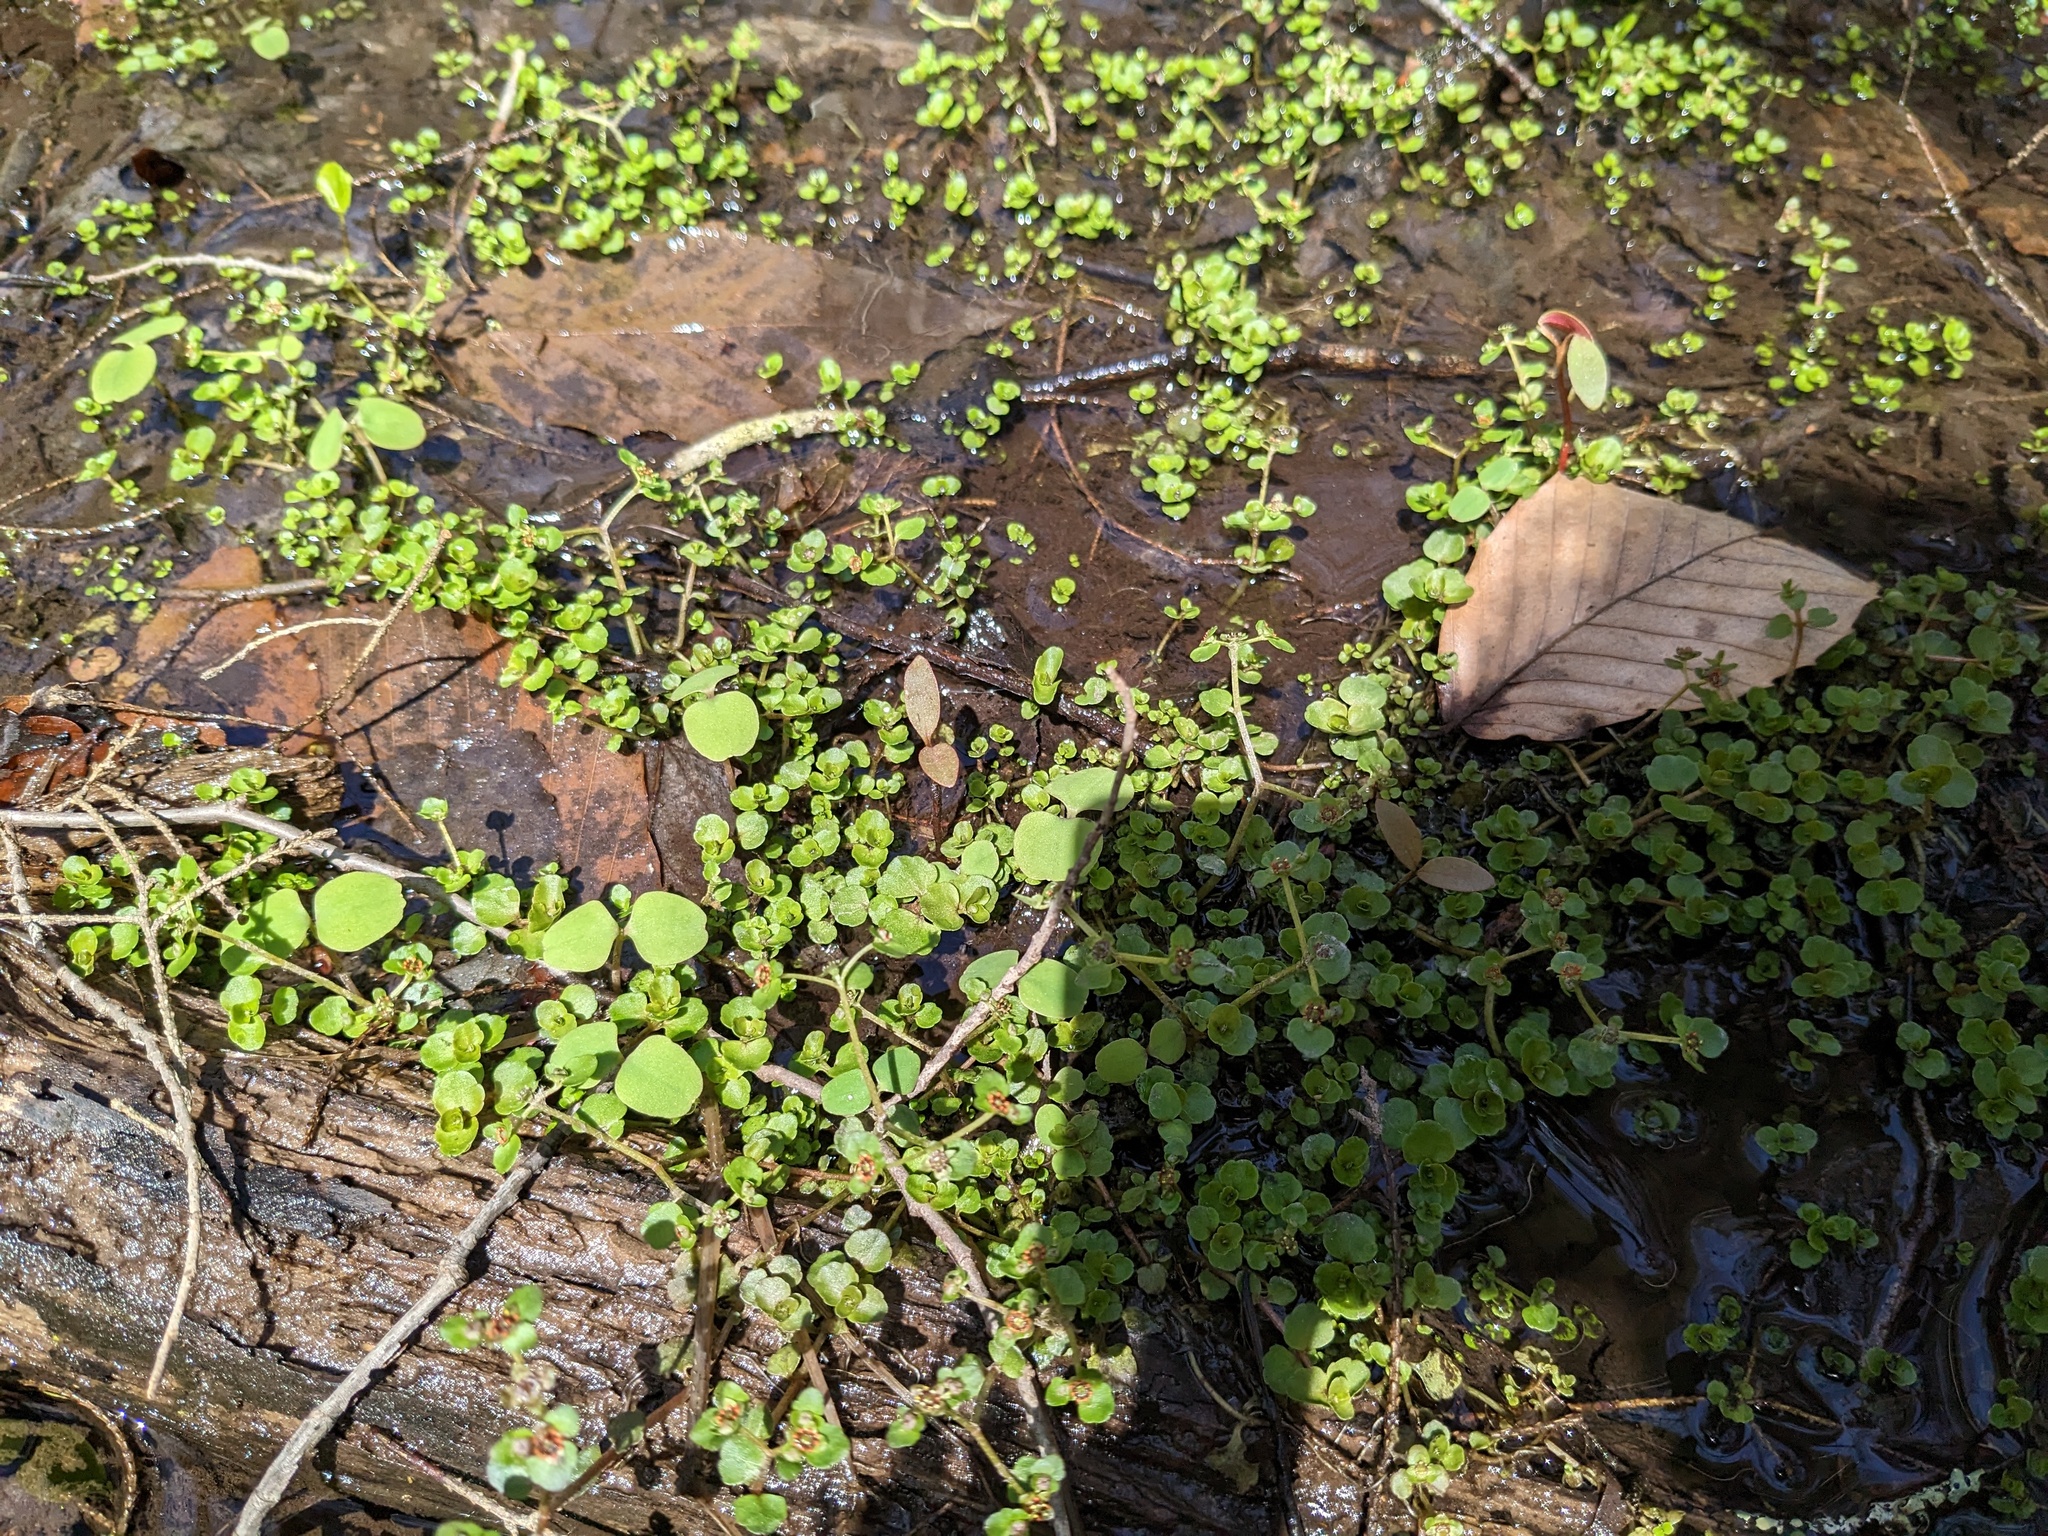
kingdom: Plantae
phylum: Tracheophyta
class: Magnoliopsida
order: Saxifragales
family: Saxifragaceae
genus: Chrysosplenium
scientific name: Chrysosplenium americanum
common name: American golden-saxifrage
